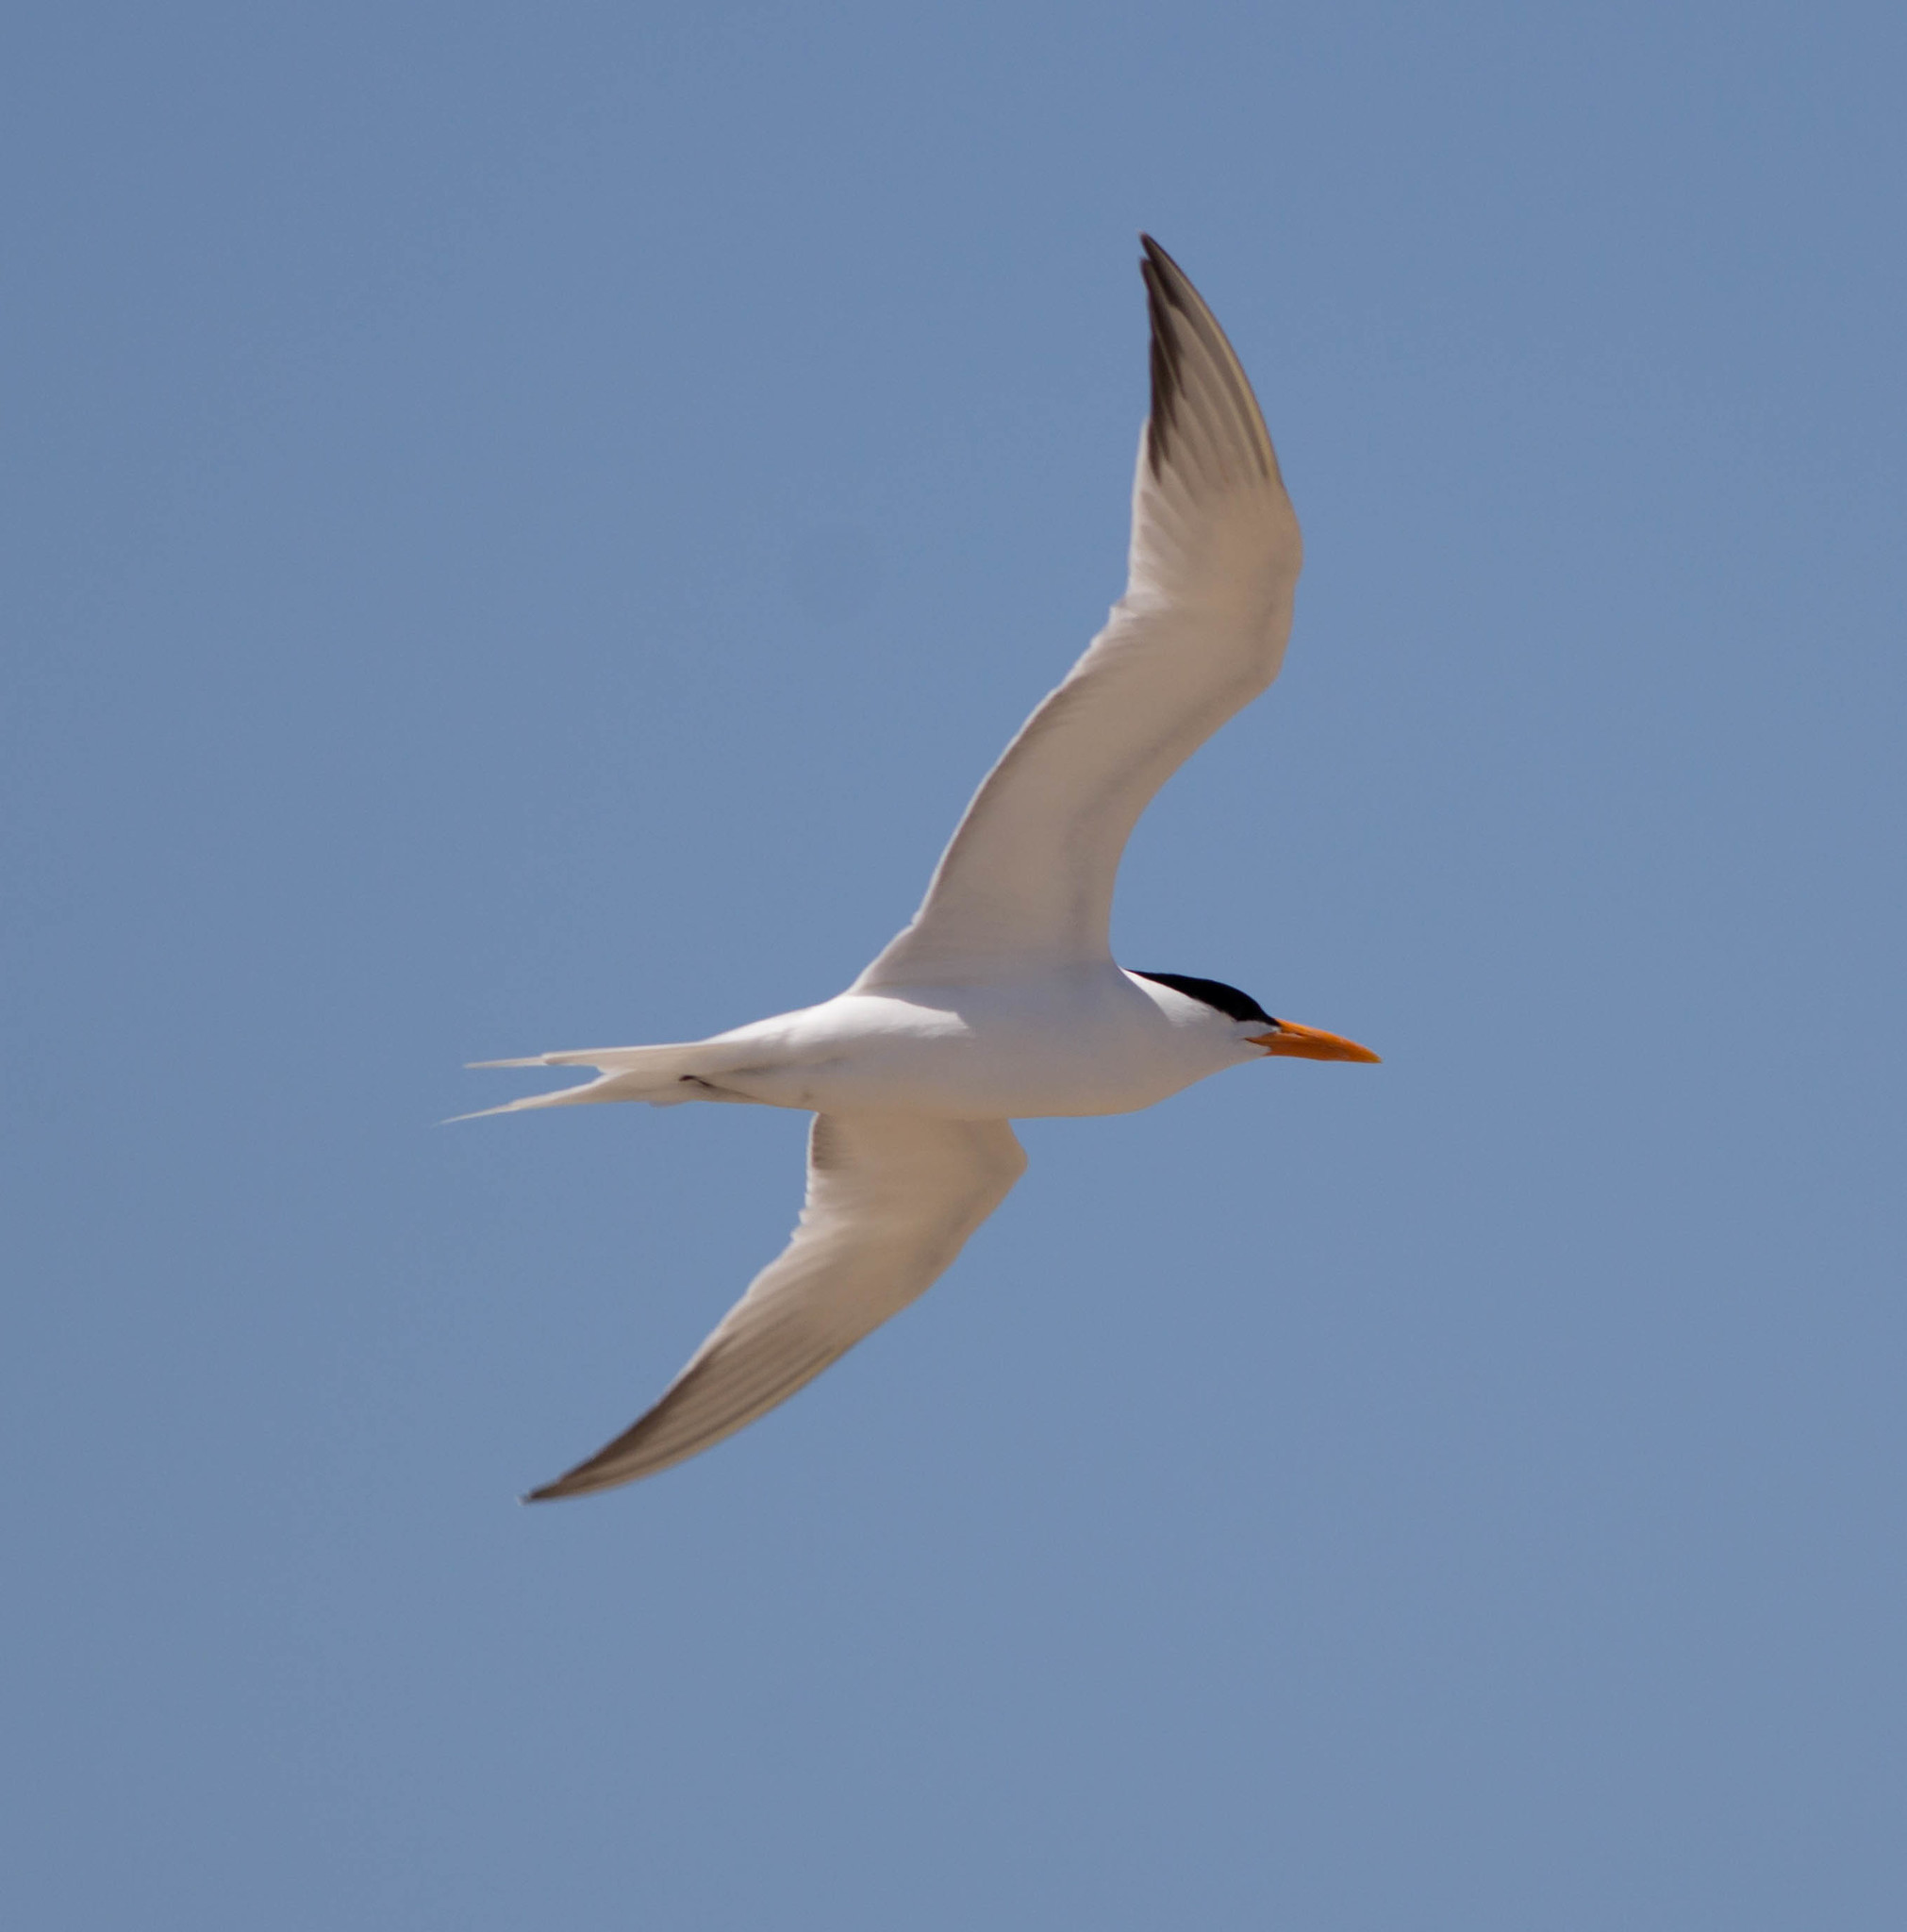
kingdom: Animalia
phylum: Chordata
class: Aves
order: Charadriiformes
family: Laridae
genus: Thalasseus
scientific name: Thalasseus maximus
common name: Royal tern
